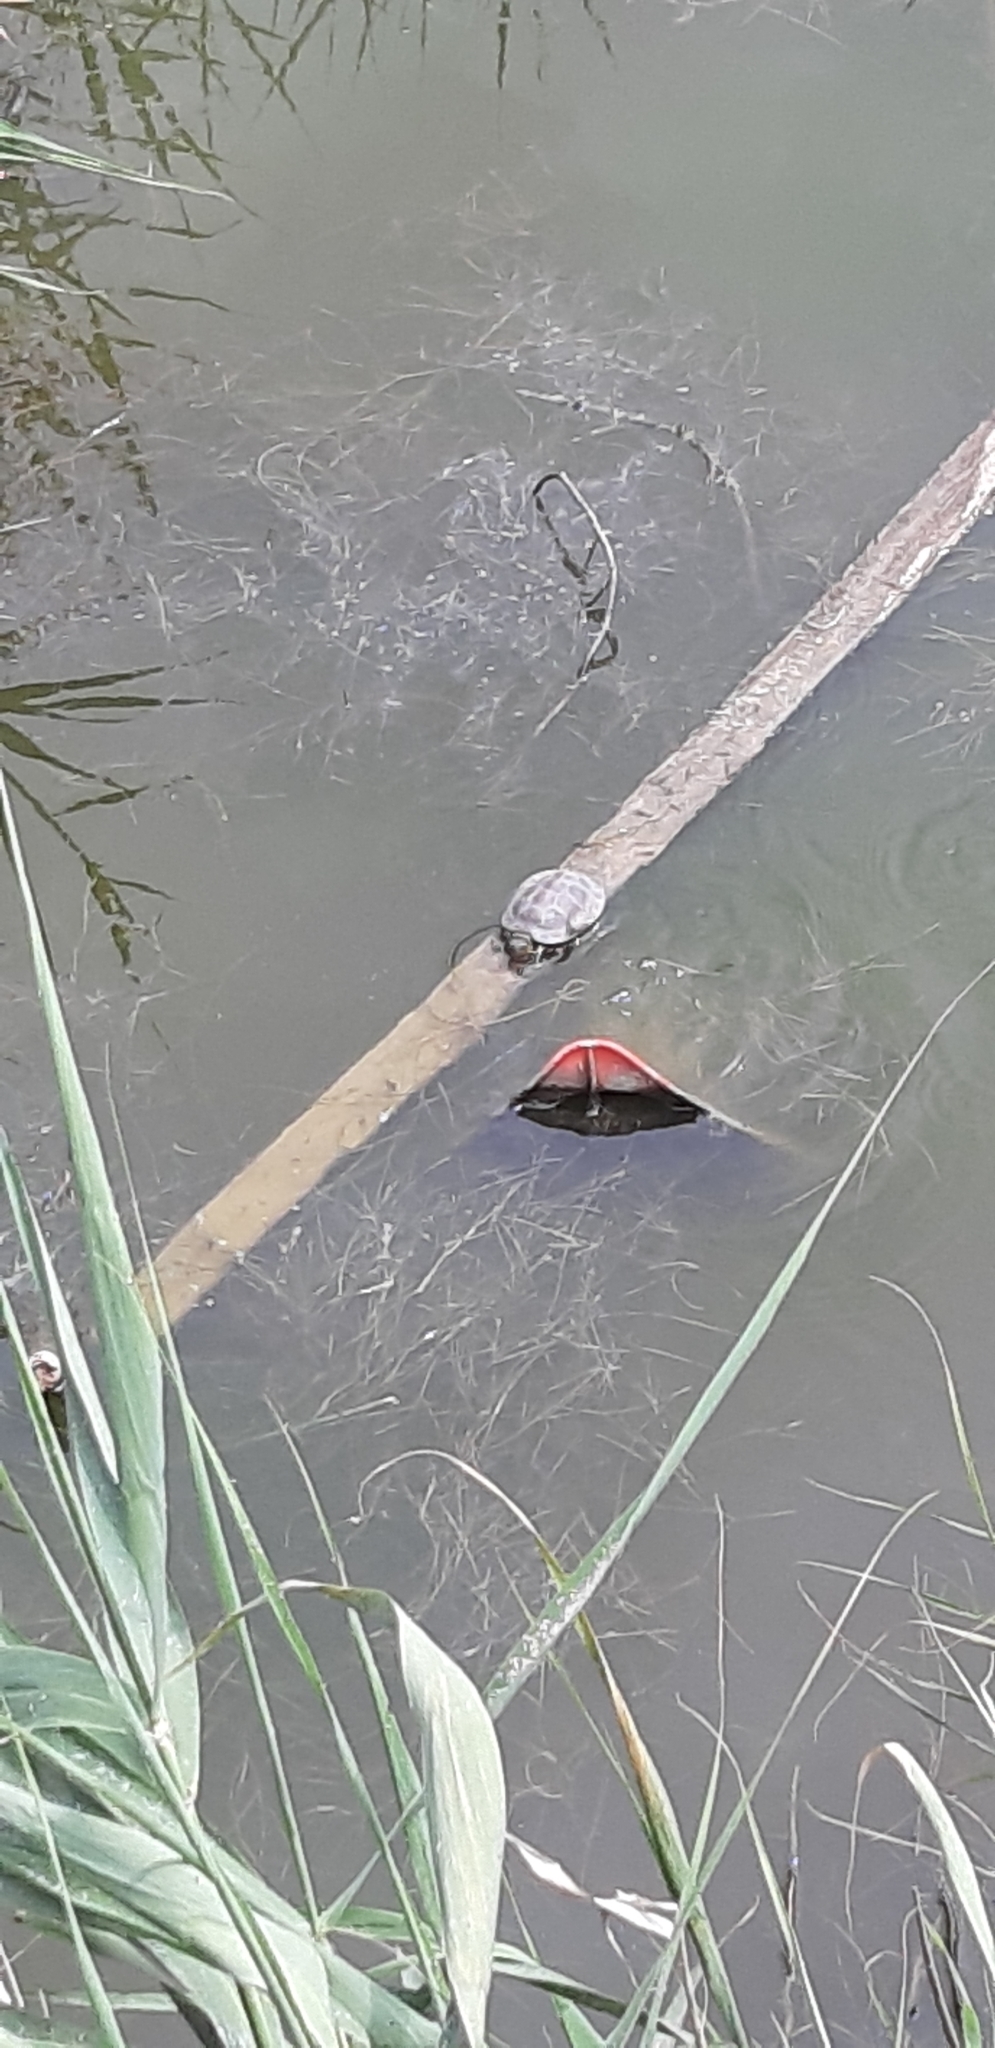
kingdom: Animalia
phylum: Chordata
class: Testudines
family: Emydidae
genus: Emys
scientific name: Emys orbicularis
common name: European pond turtle
